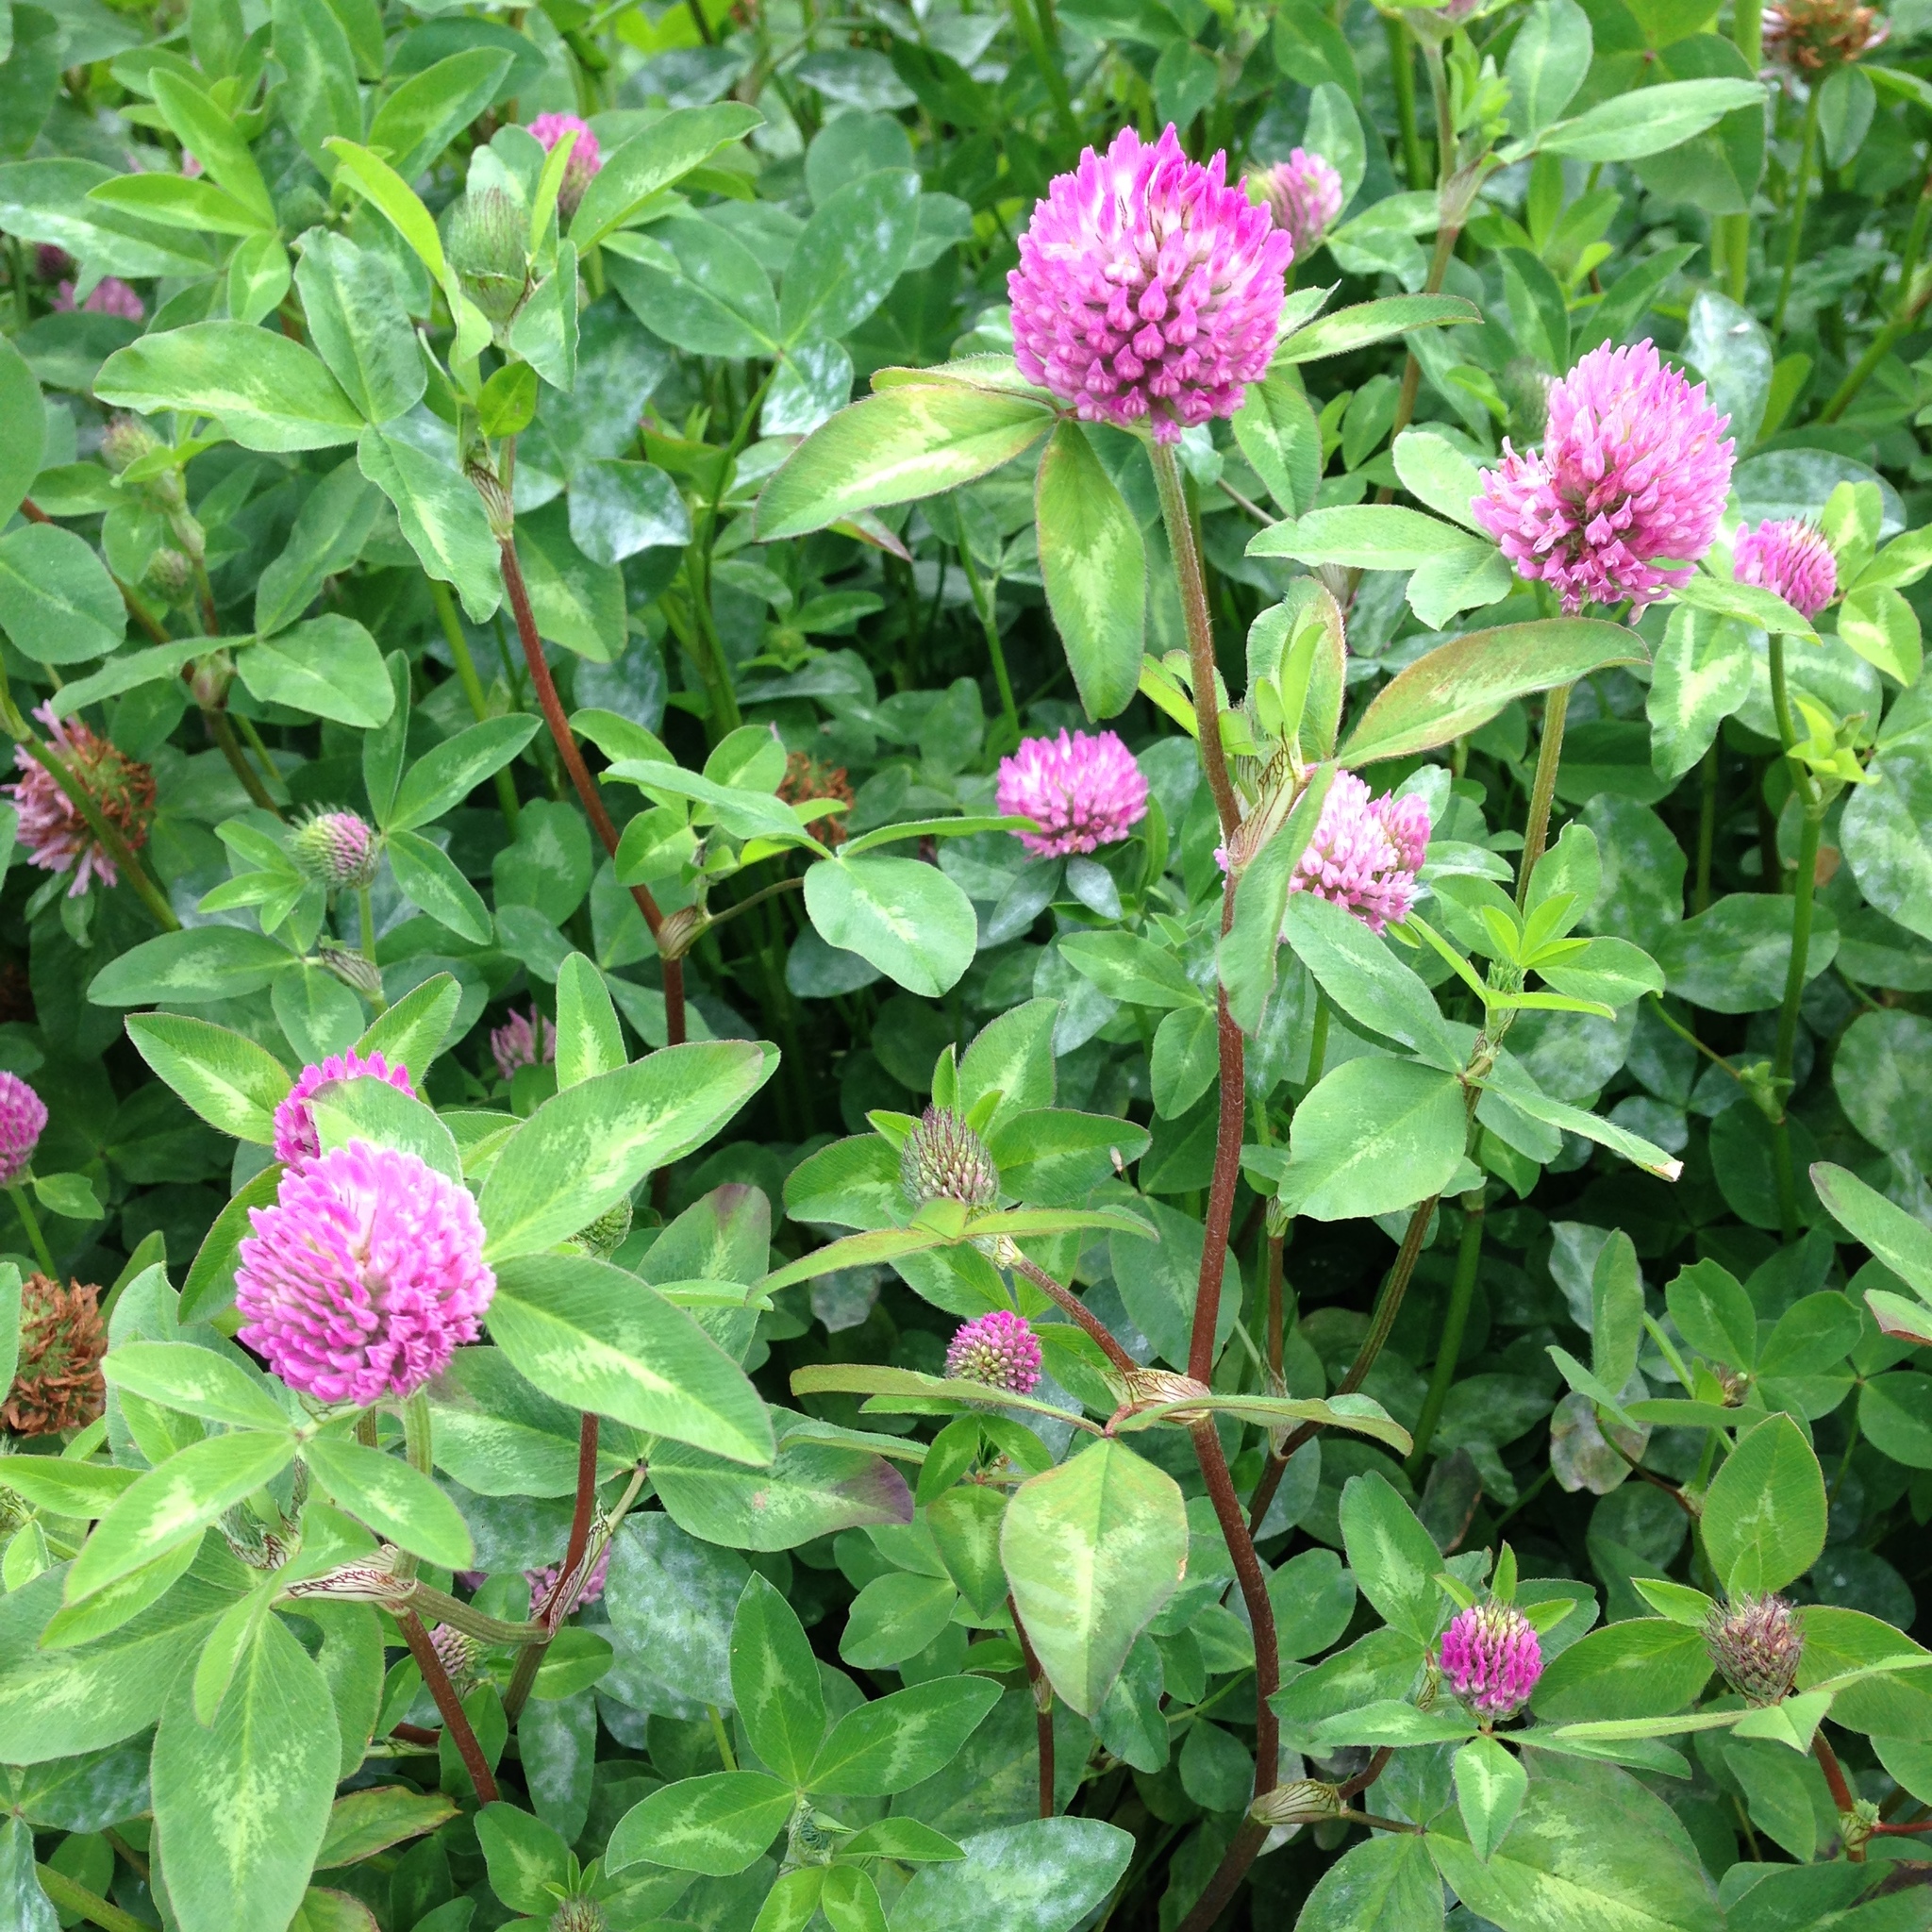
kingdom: Plantae
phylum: Tracheophyta
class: Magnoliopsida
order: Fabales
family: Fabaceae
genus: Trifolium
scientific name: Trifolium pratense
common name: Red clover
